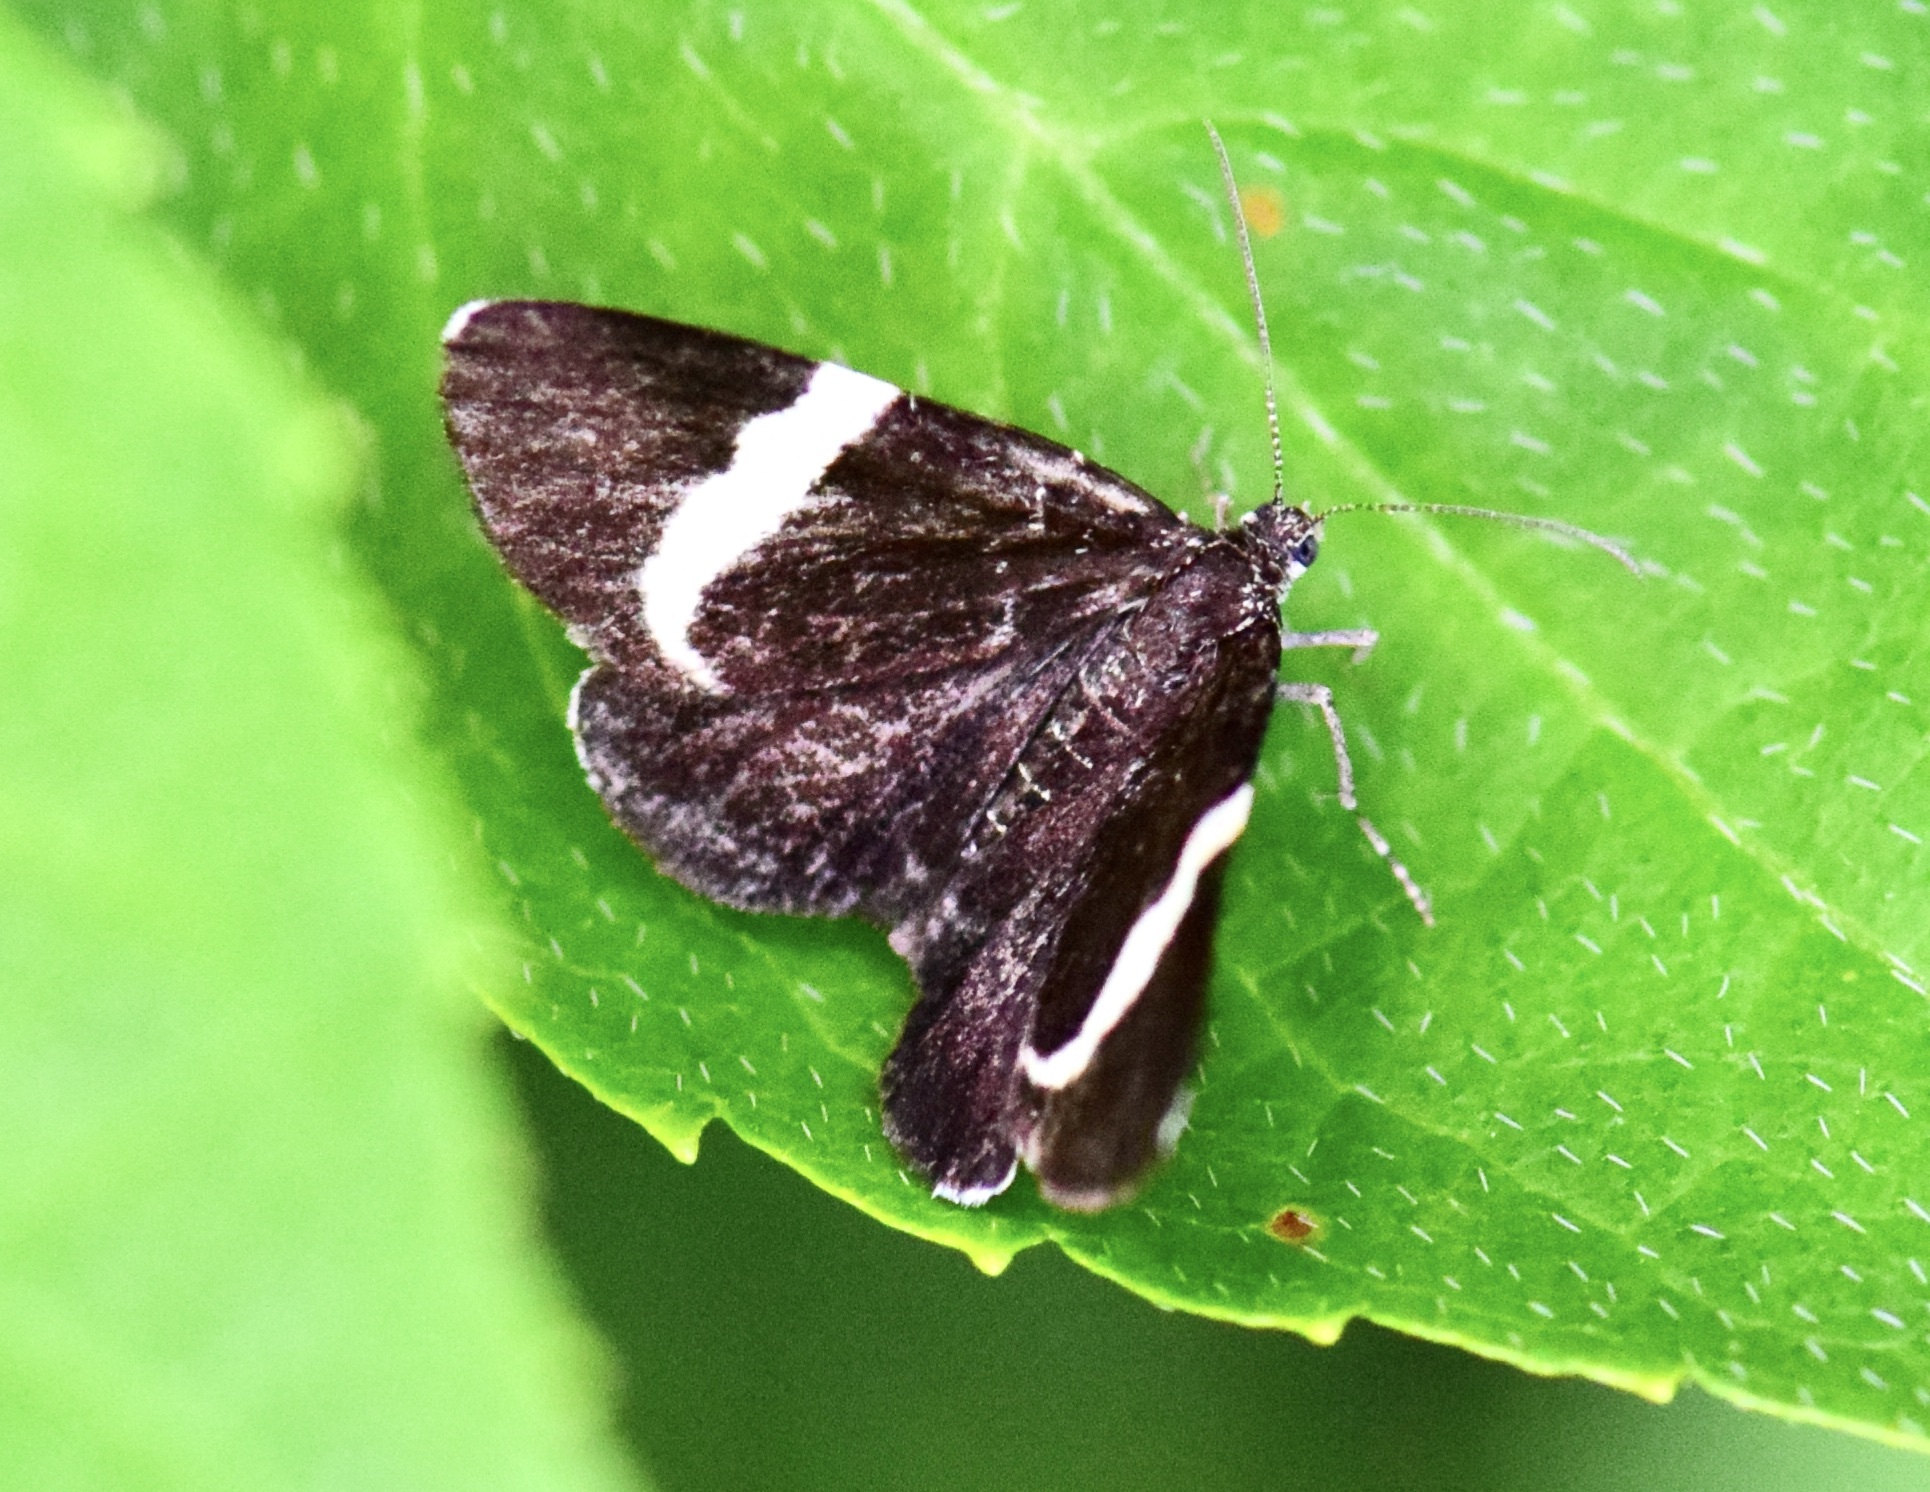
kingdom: Animalia
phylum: Arthropoda
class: Insecta
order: Lepidoptera
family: Geometridae
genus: Trichodezia
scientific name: Trichodezia albovittata
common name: White striped black
